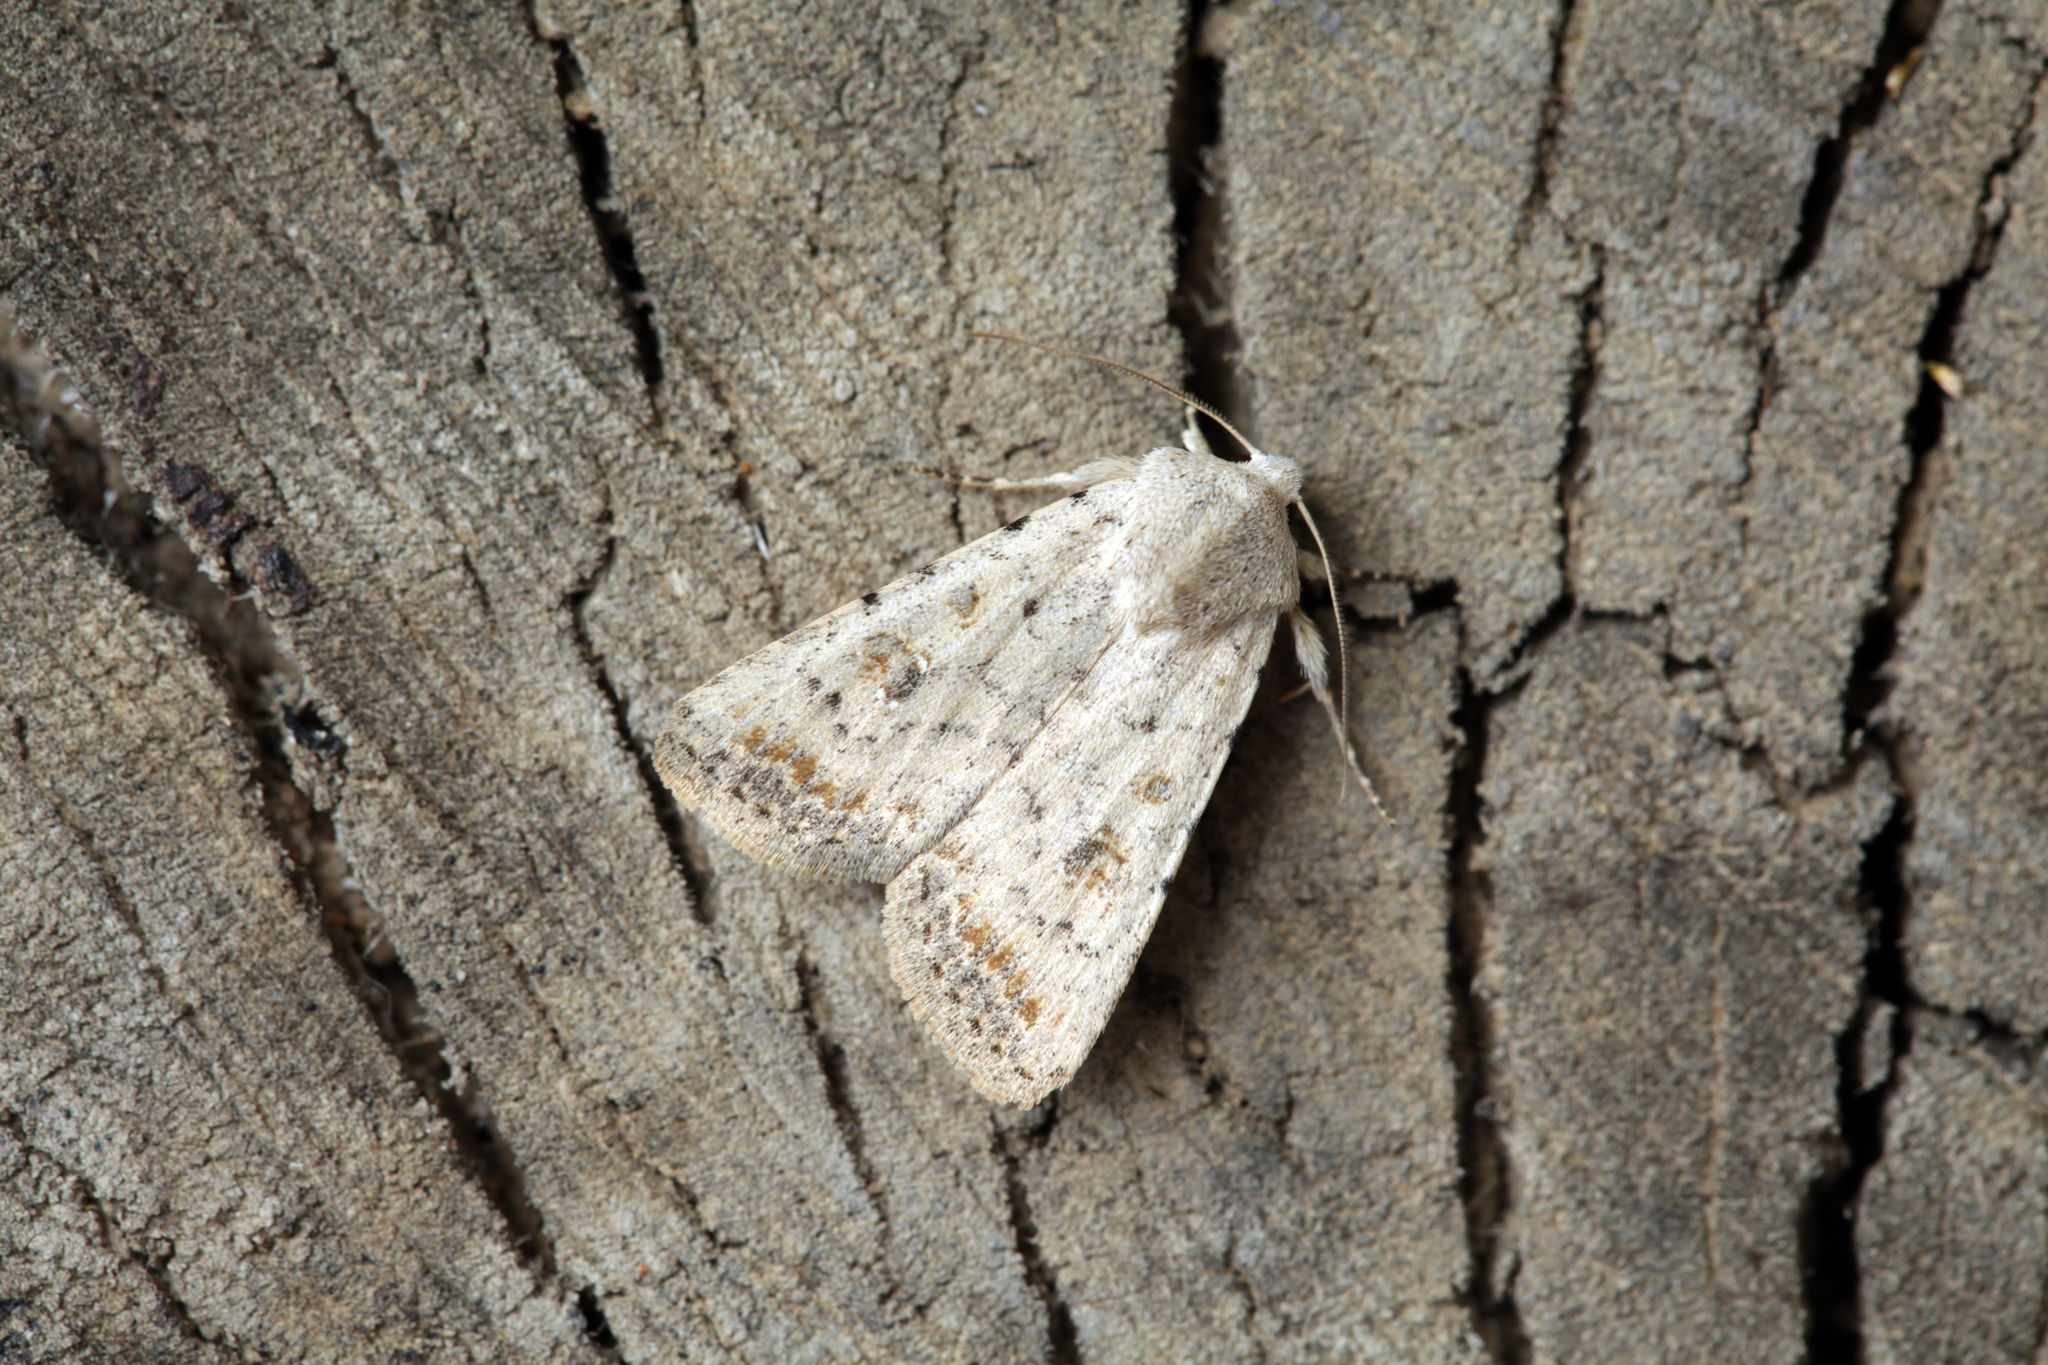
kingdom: Animalia
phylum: Arthropoda
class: Insecta
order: Lepidoptera
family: Noctuidae
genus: Caradrina
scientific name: Caradrina albina
